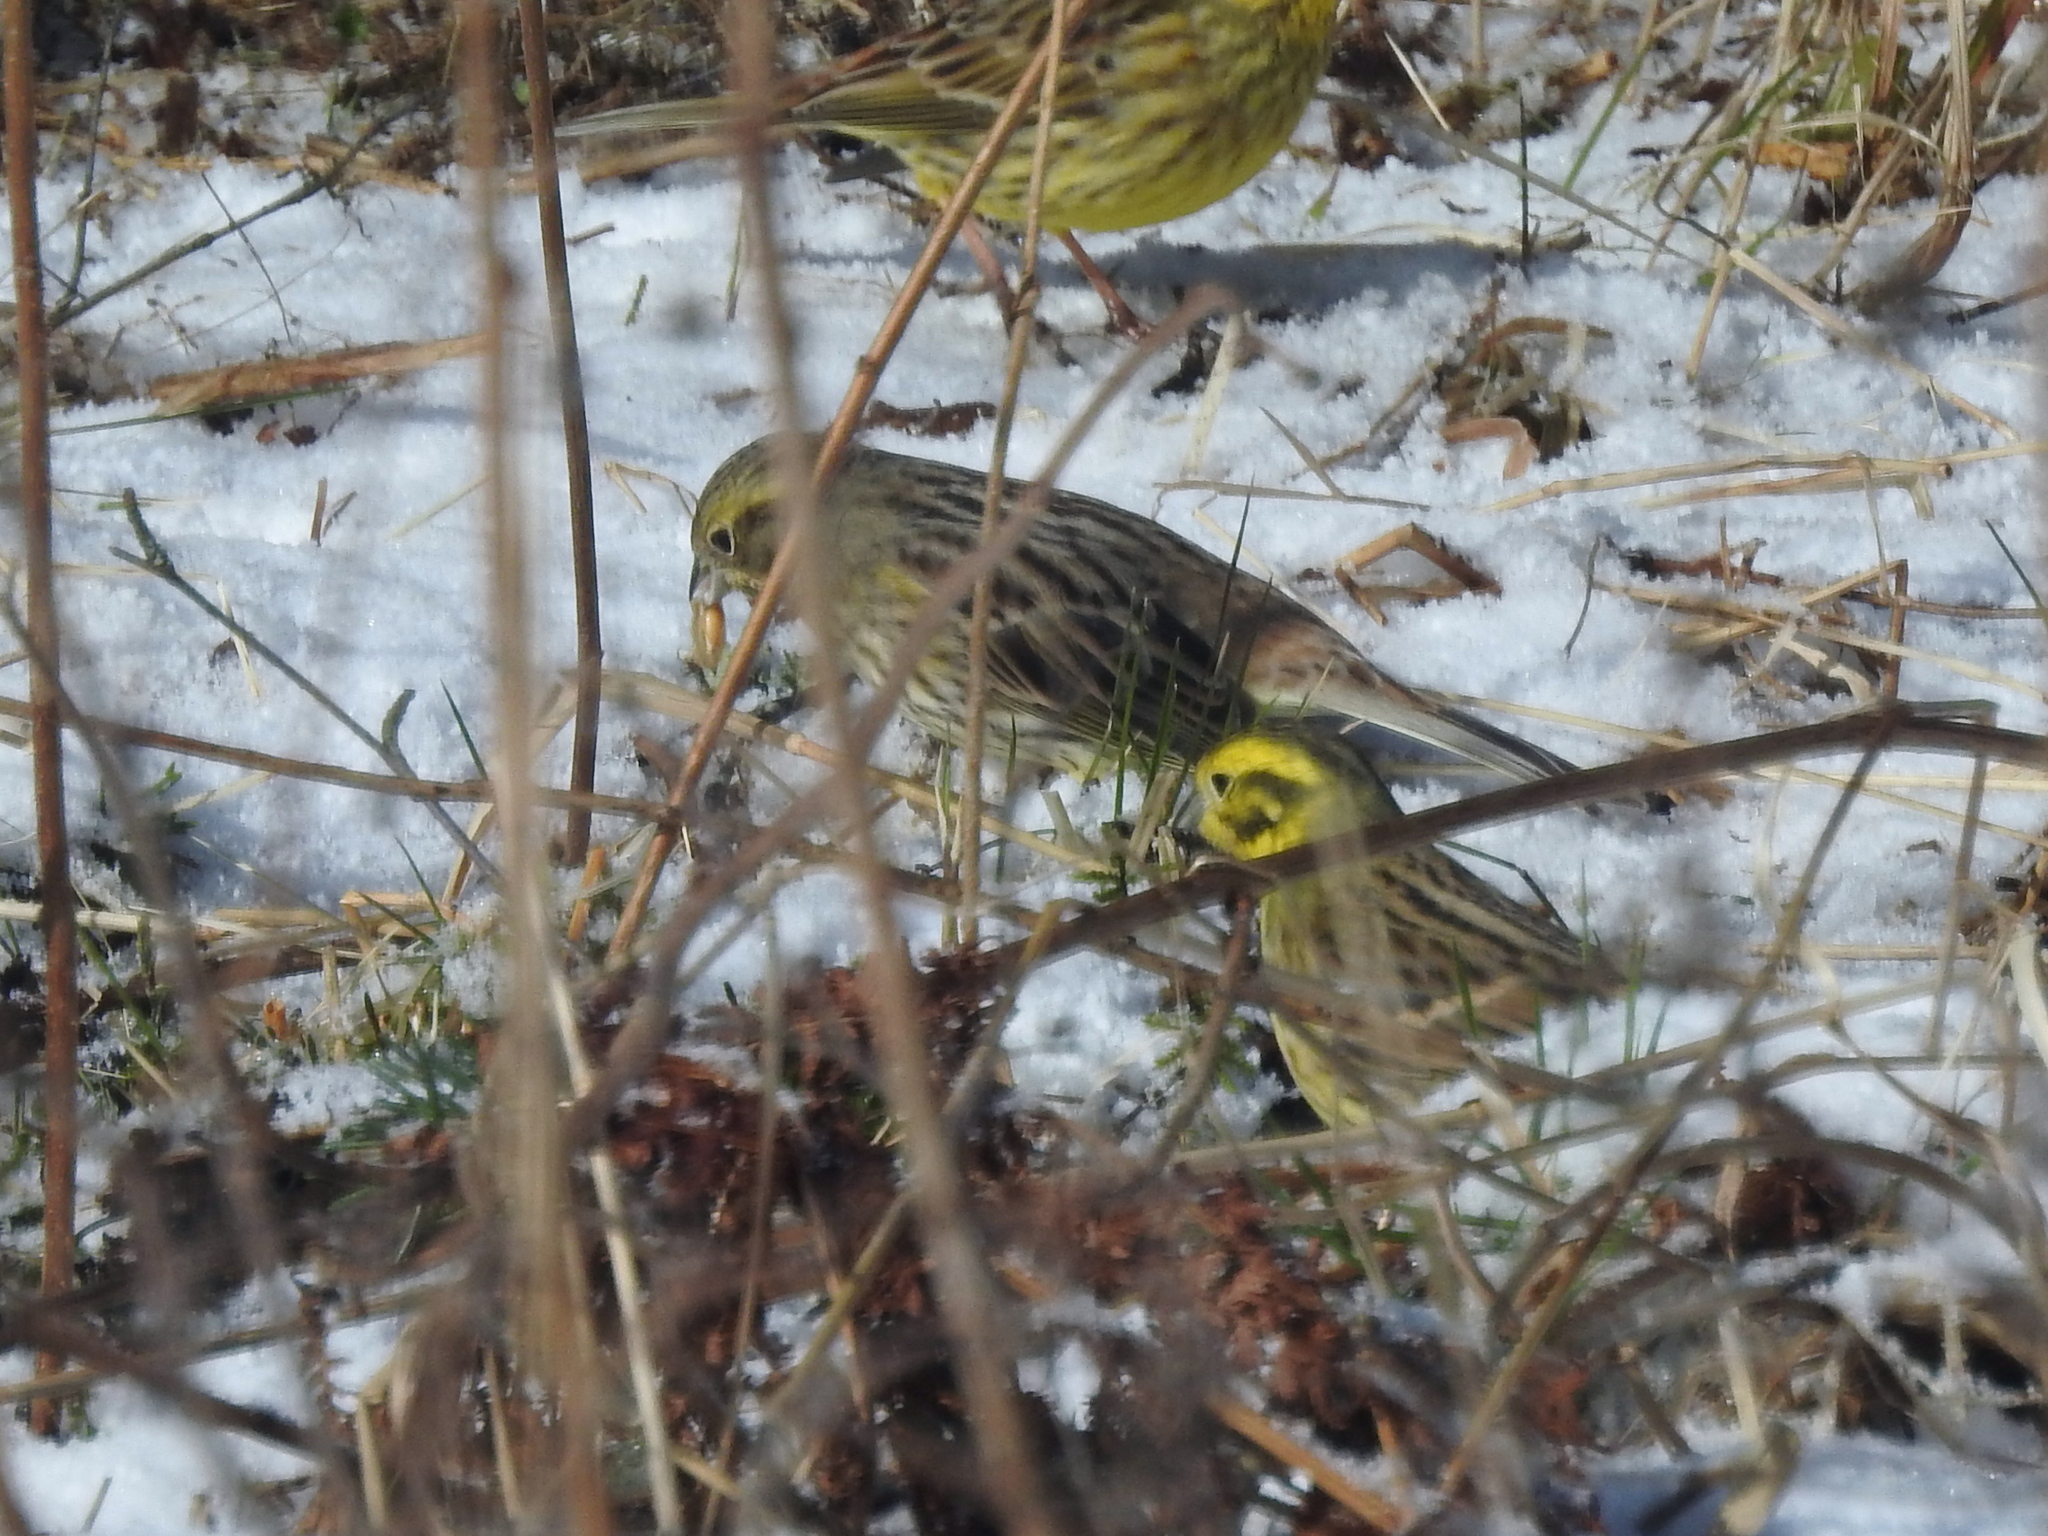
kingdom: Animalia
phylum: Chordata
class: Aves
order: Passeriformes
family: Emberizidae
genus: Emberiza
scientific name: Emberiza citrinella
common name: Yellowhammer
